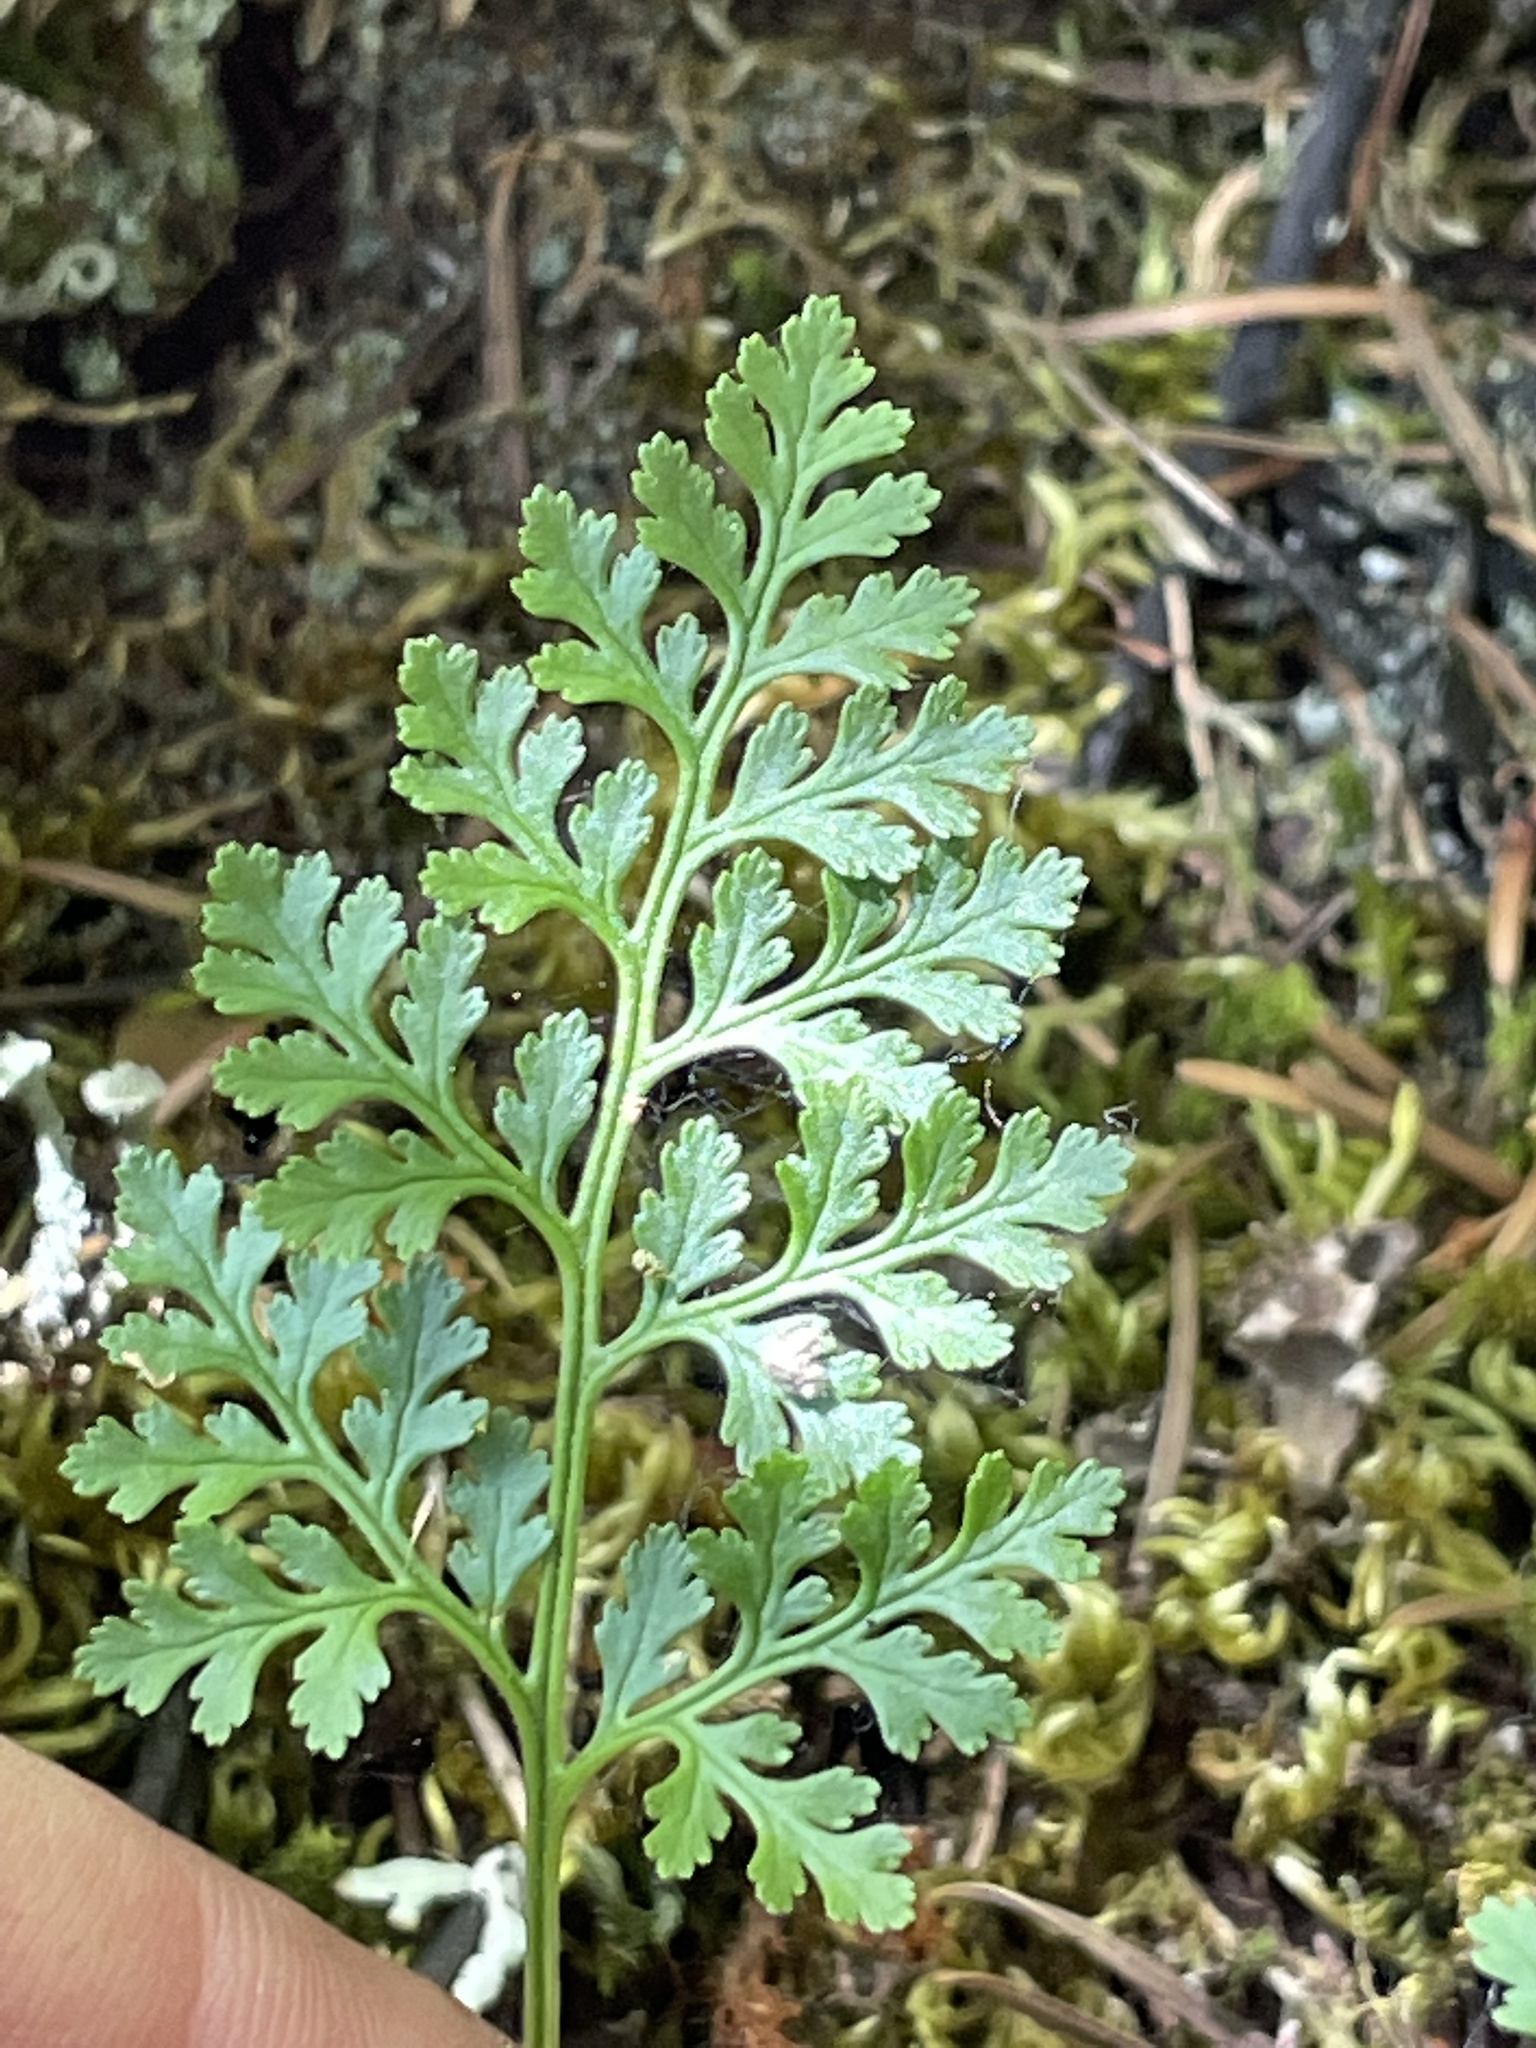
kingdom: Plantae
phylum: Tracheophyta
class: Polypodiopsida
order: Polypodiales
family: Pteridaceae
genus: Cryptogramma
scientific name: Cryptogramma acrostichoides
